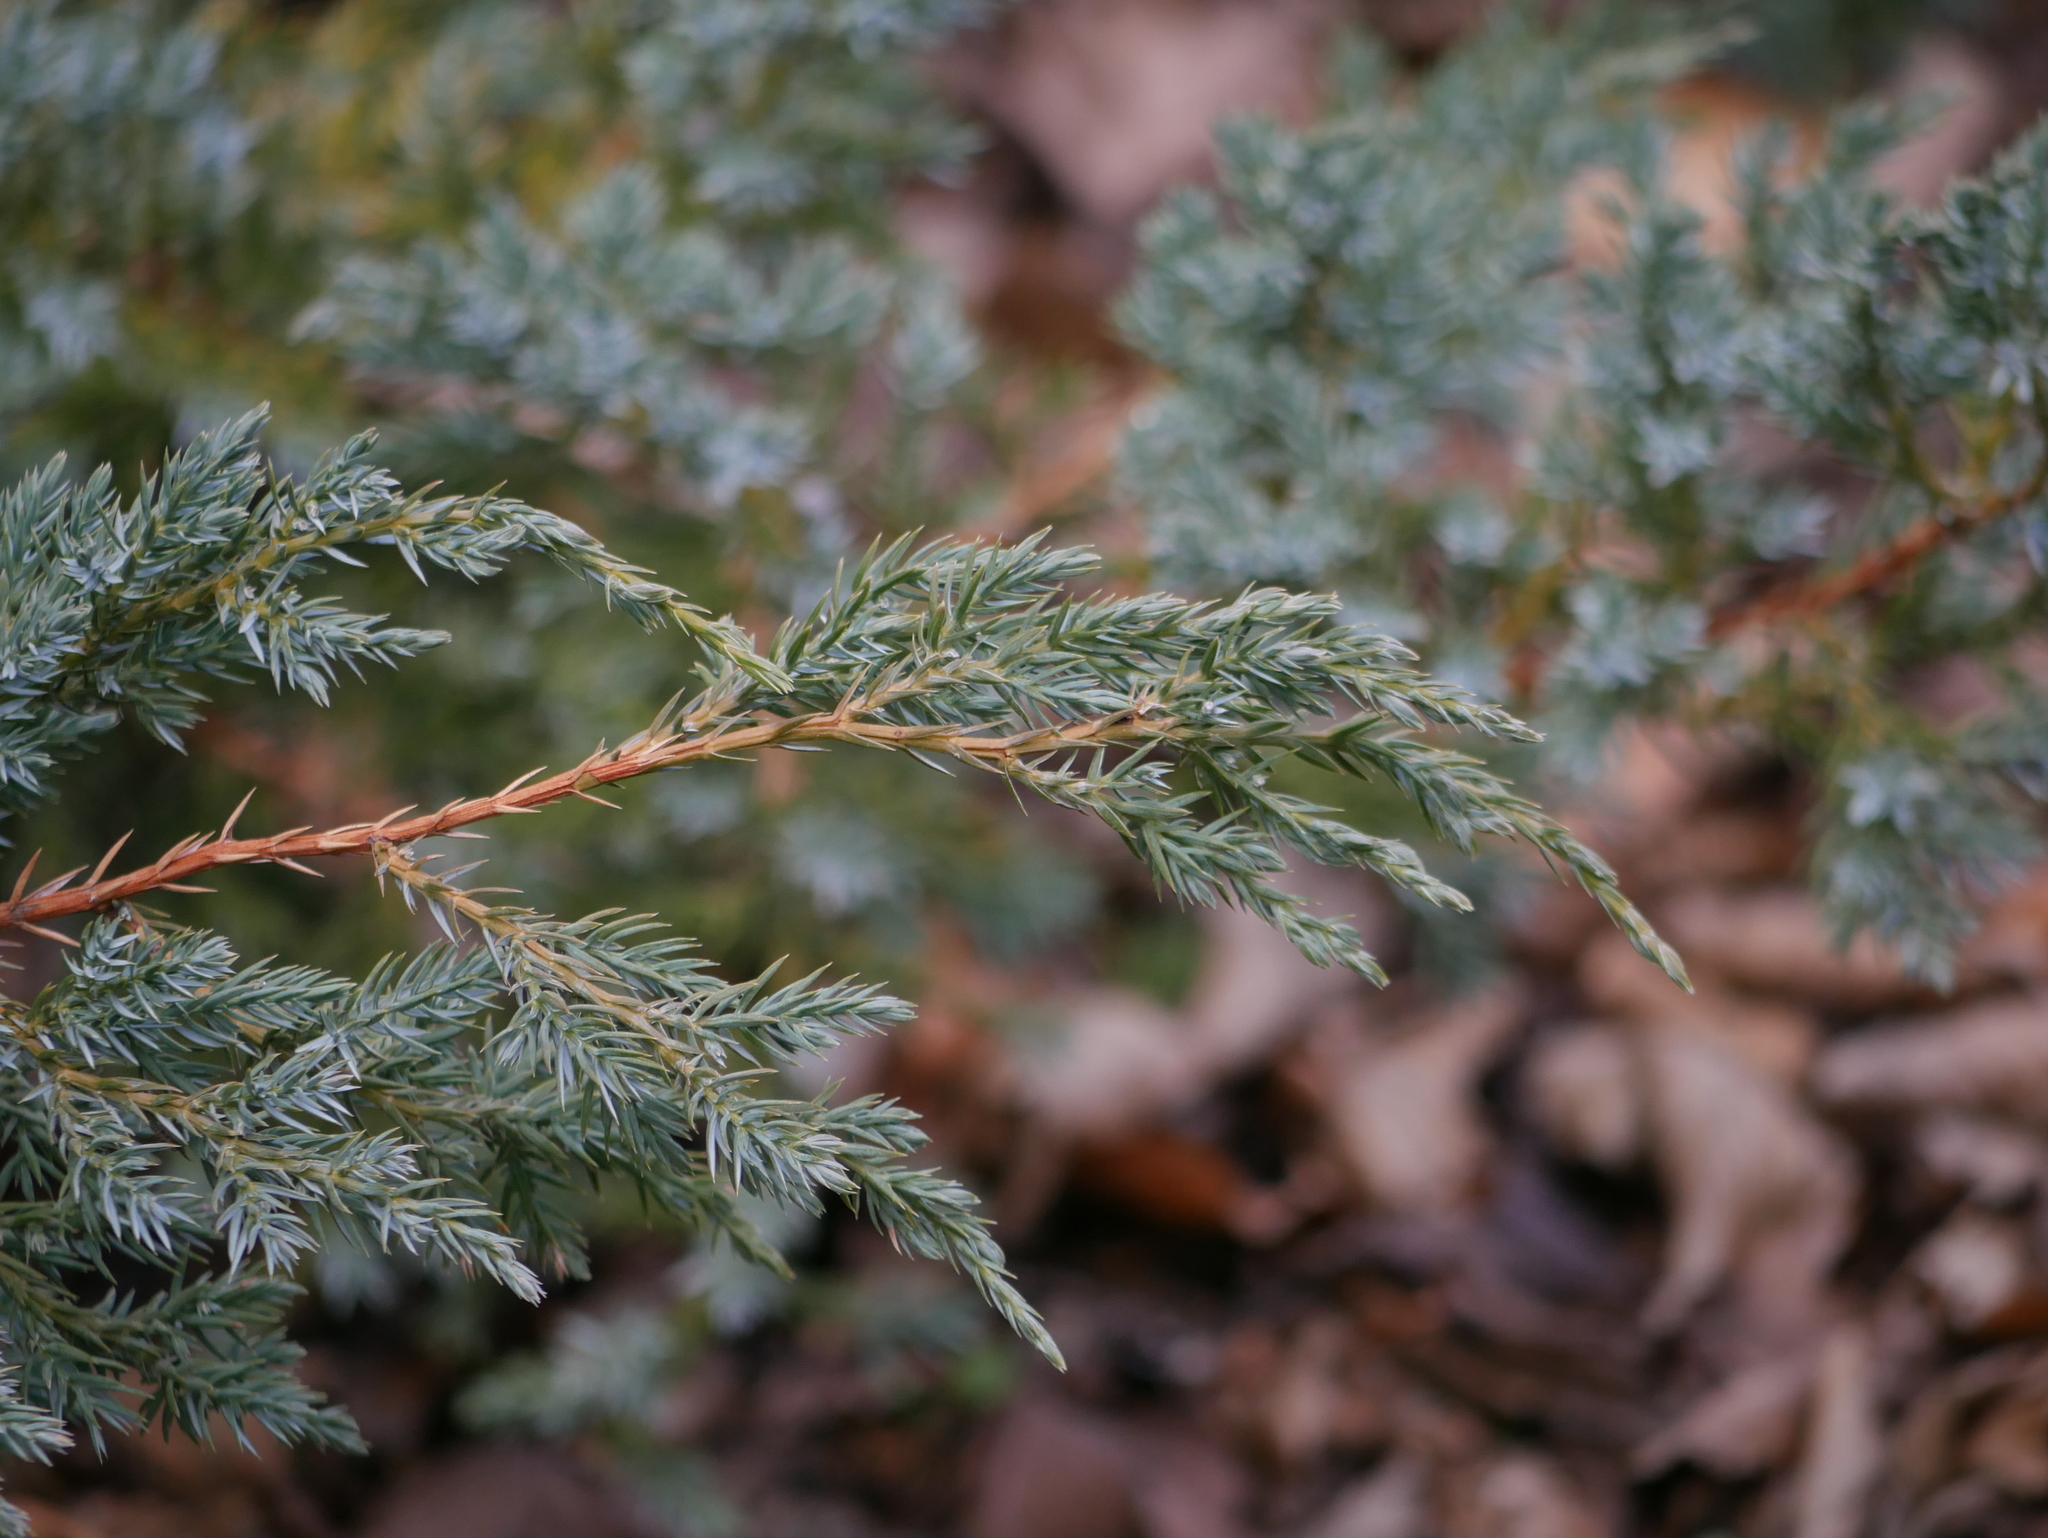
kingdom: Plantae
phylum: Tracheophyta
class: Pinopsida
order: Pinales
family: Cupressaceae
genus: Juniperus
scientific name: Juniperus communis
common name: Common juniper
